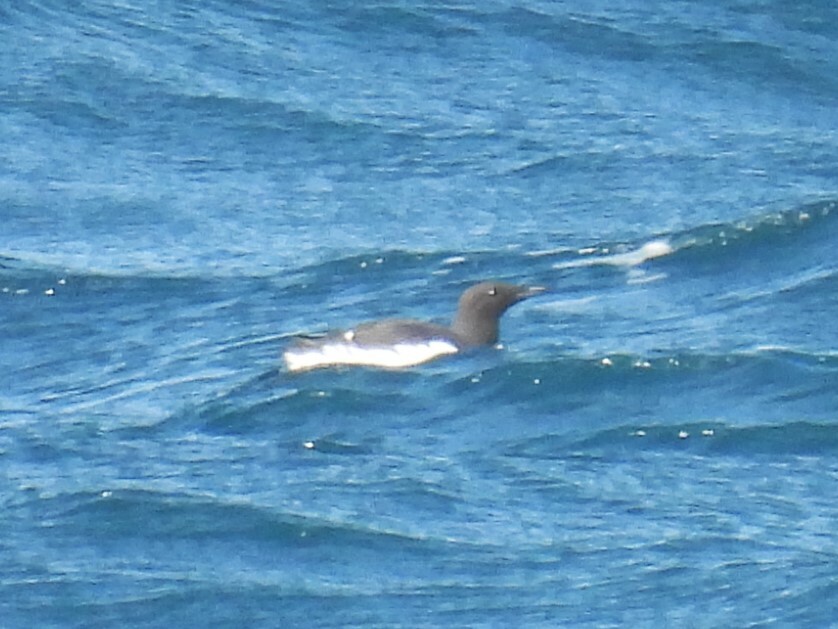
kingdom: Animalia
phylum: Chordata
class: Aves
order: Charadriiformes
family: Alcidae
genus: Uria
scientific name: Uria aalge
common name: Common murre
